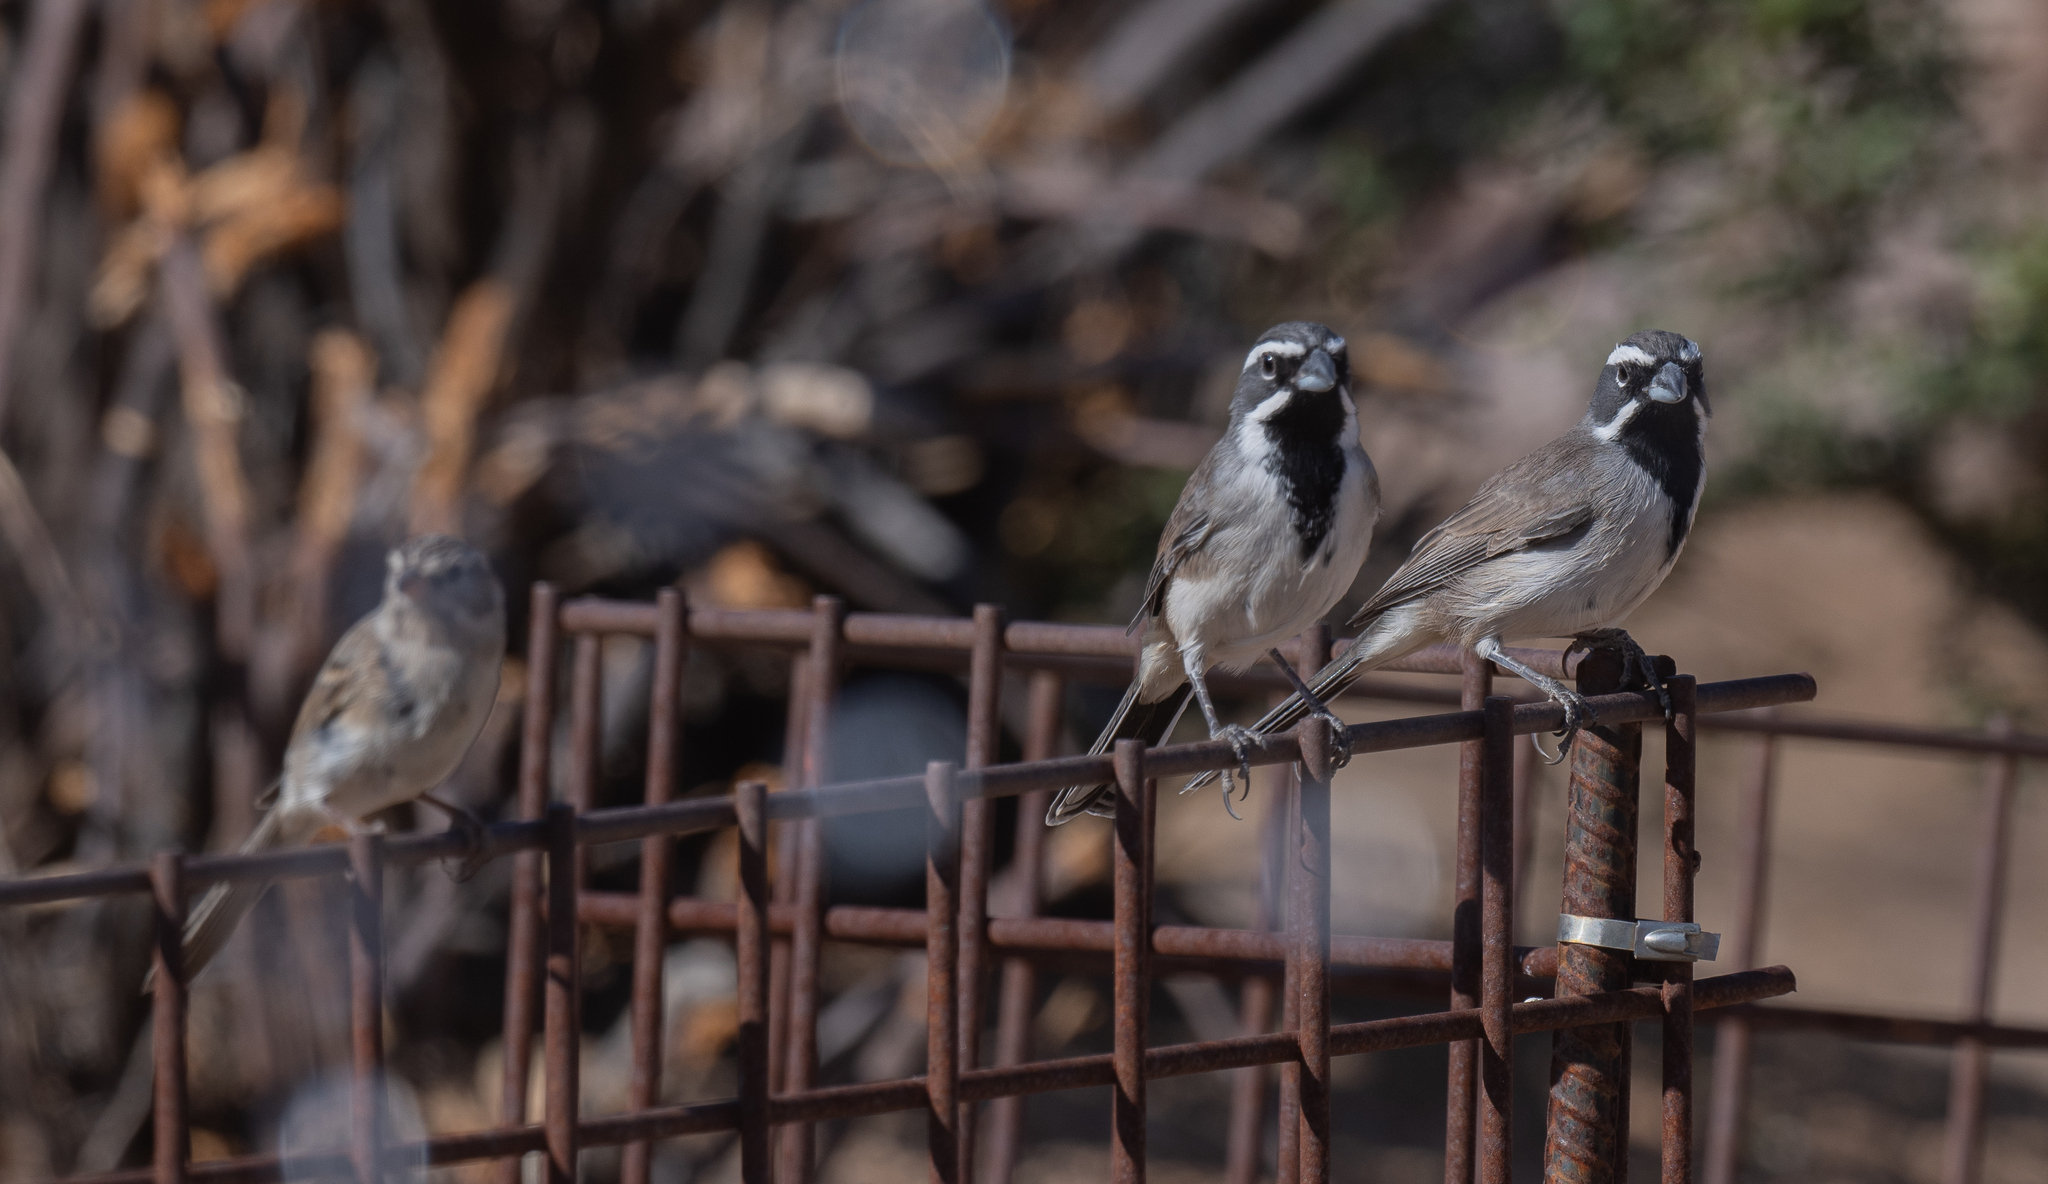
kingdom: Animalia
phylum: Chordata
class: Aves
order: Passeriformes
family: Passerellidae
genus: Amphispiza
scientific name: Amphispiza bilineata
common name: Black-throated sparrow
